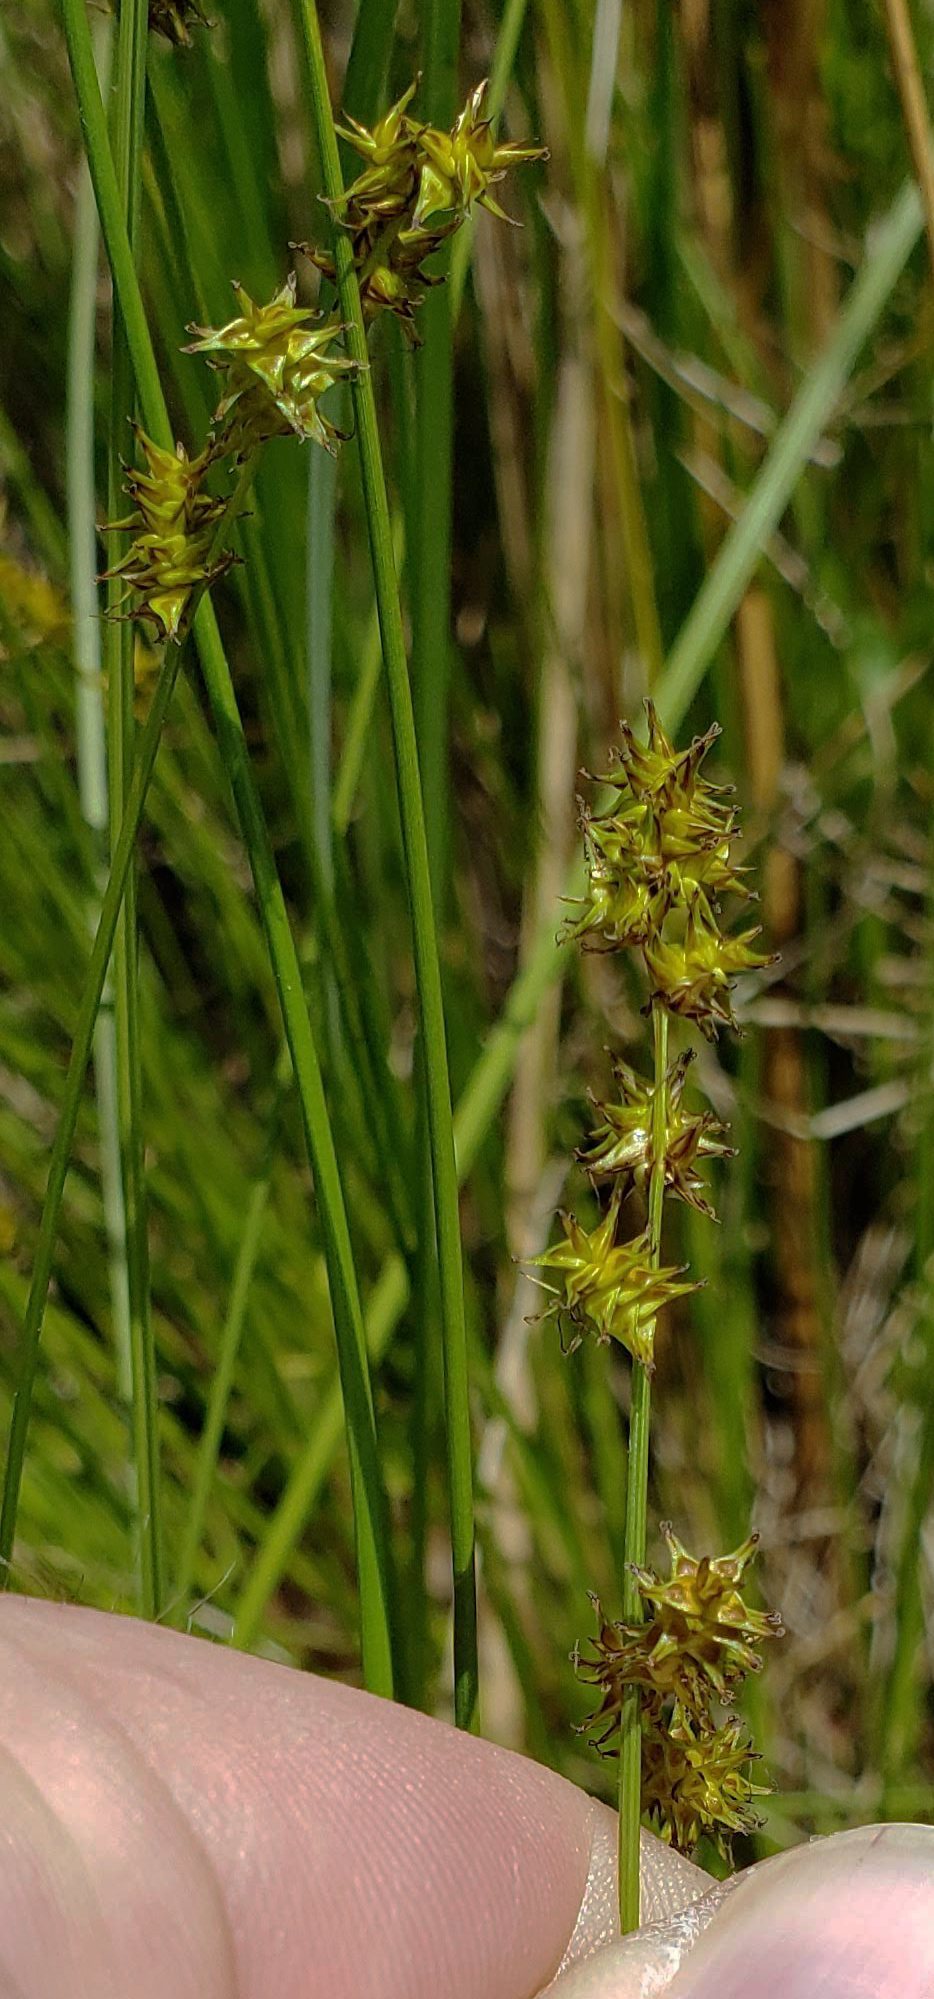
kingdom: Plantae
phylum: Tracheophyta
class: Liliopsida
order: Poales
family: Cyperaceae
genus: Carex
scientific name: Carex sterilis
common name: Dioecious sedge
